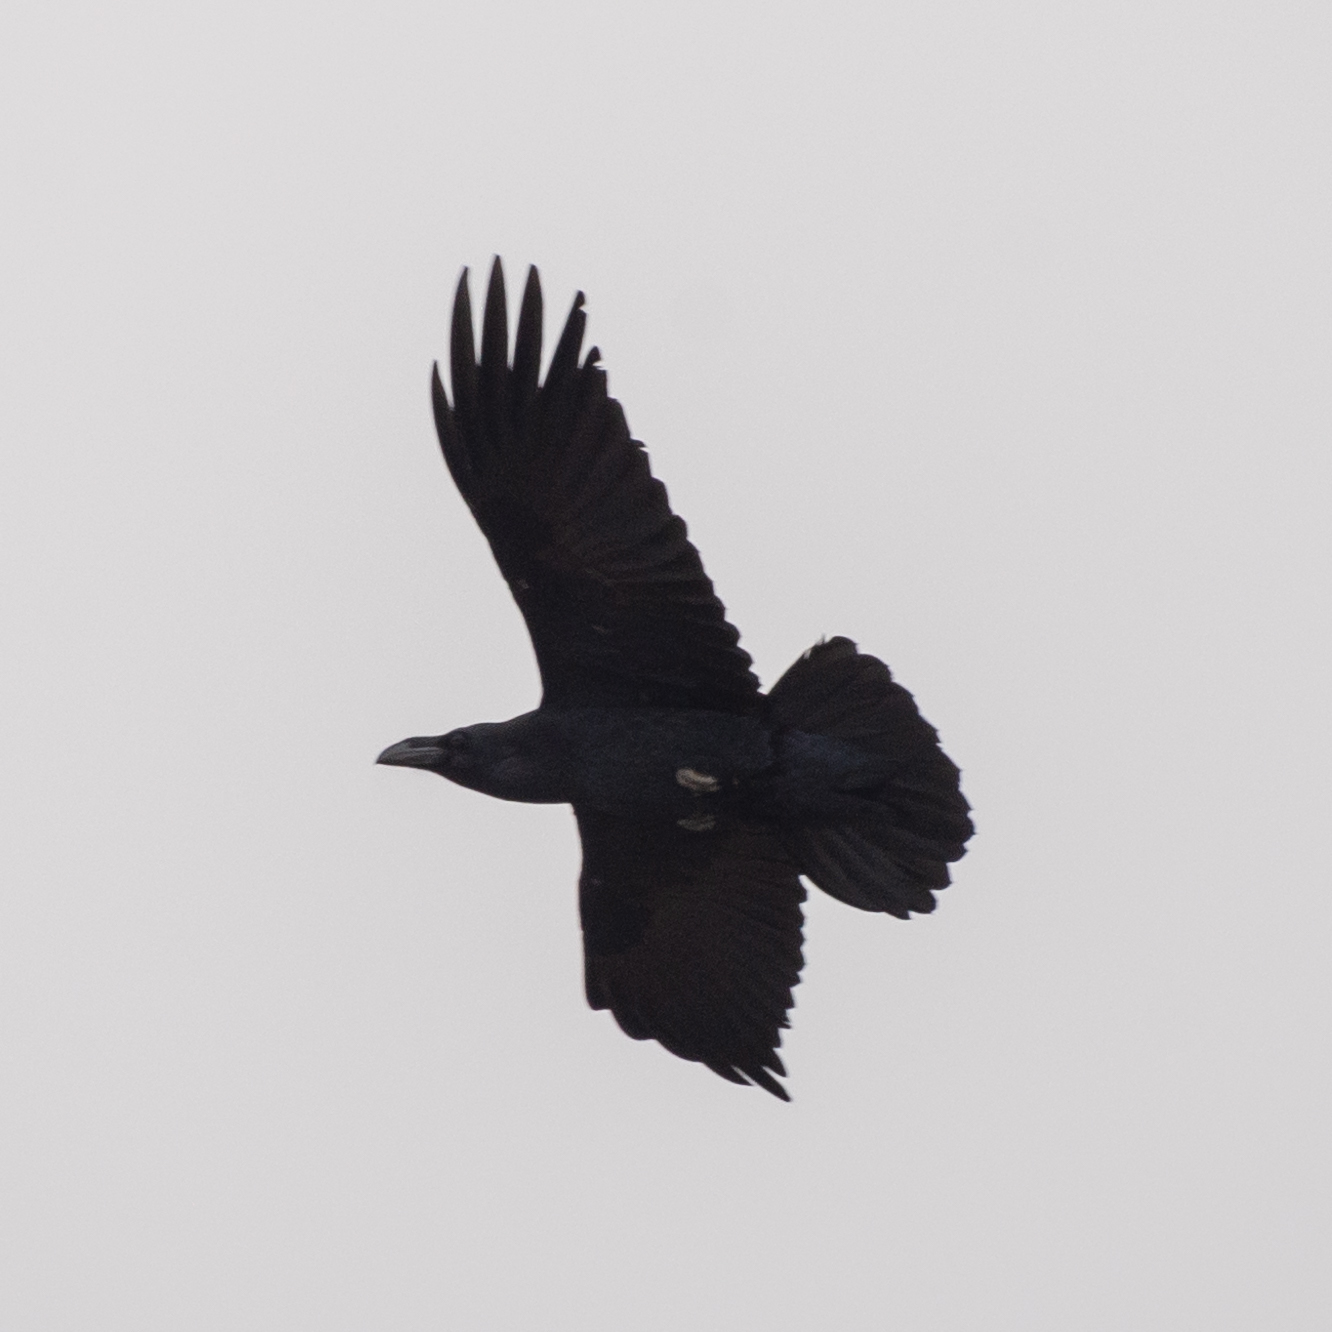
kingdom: Animalia
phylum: Chordata
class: Aves
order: Passeriformes
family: Corvidae
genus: Corvus
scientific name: Corvus corax
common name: Common raven
